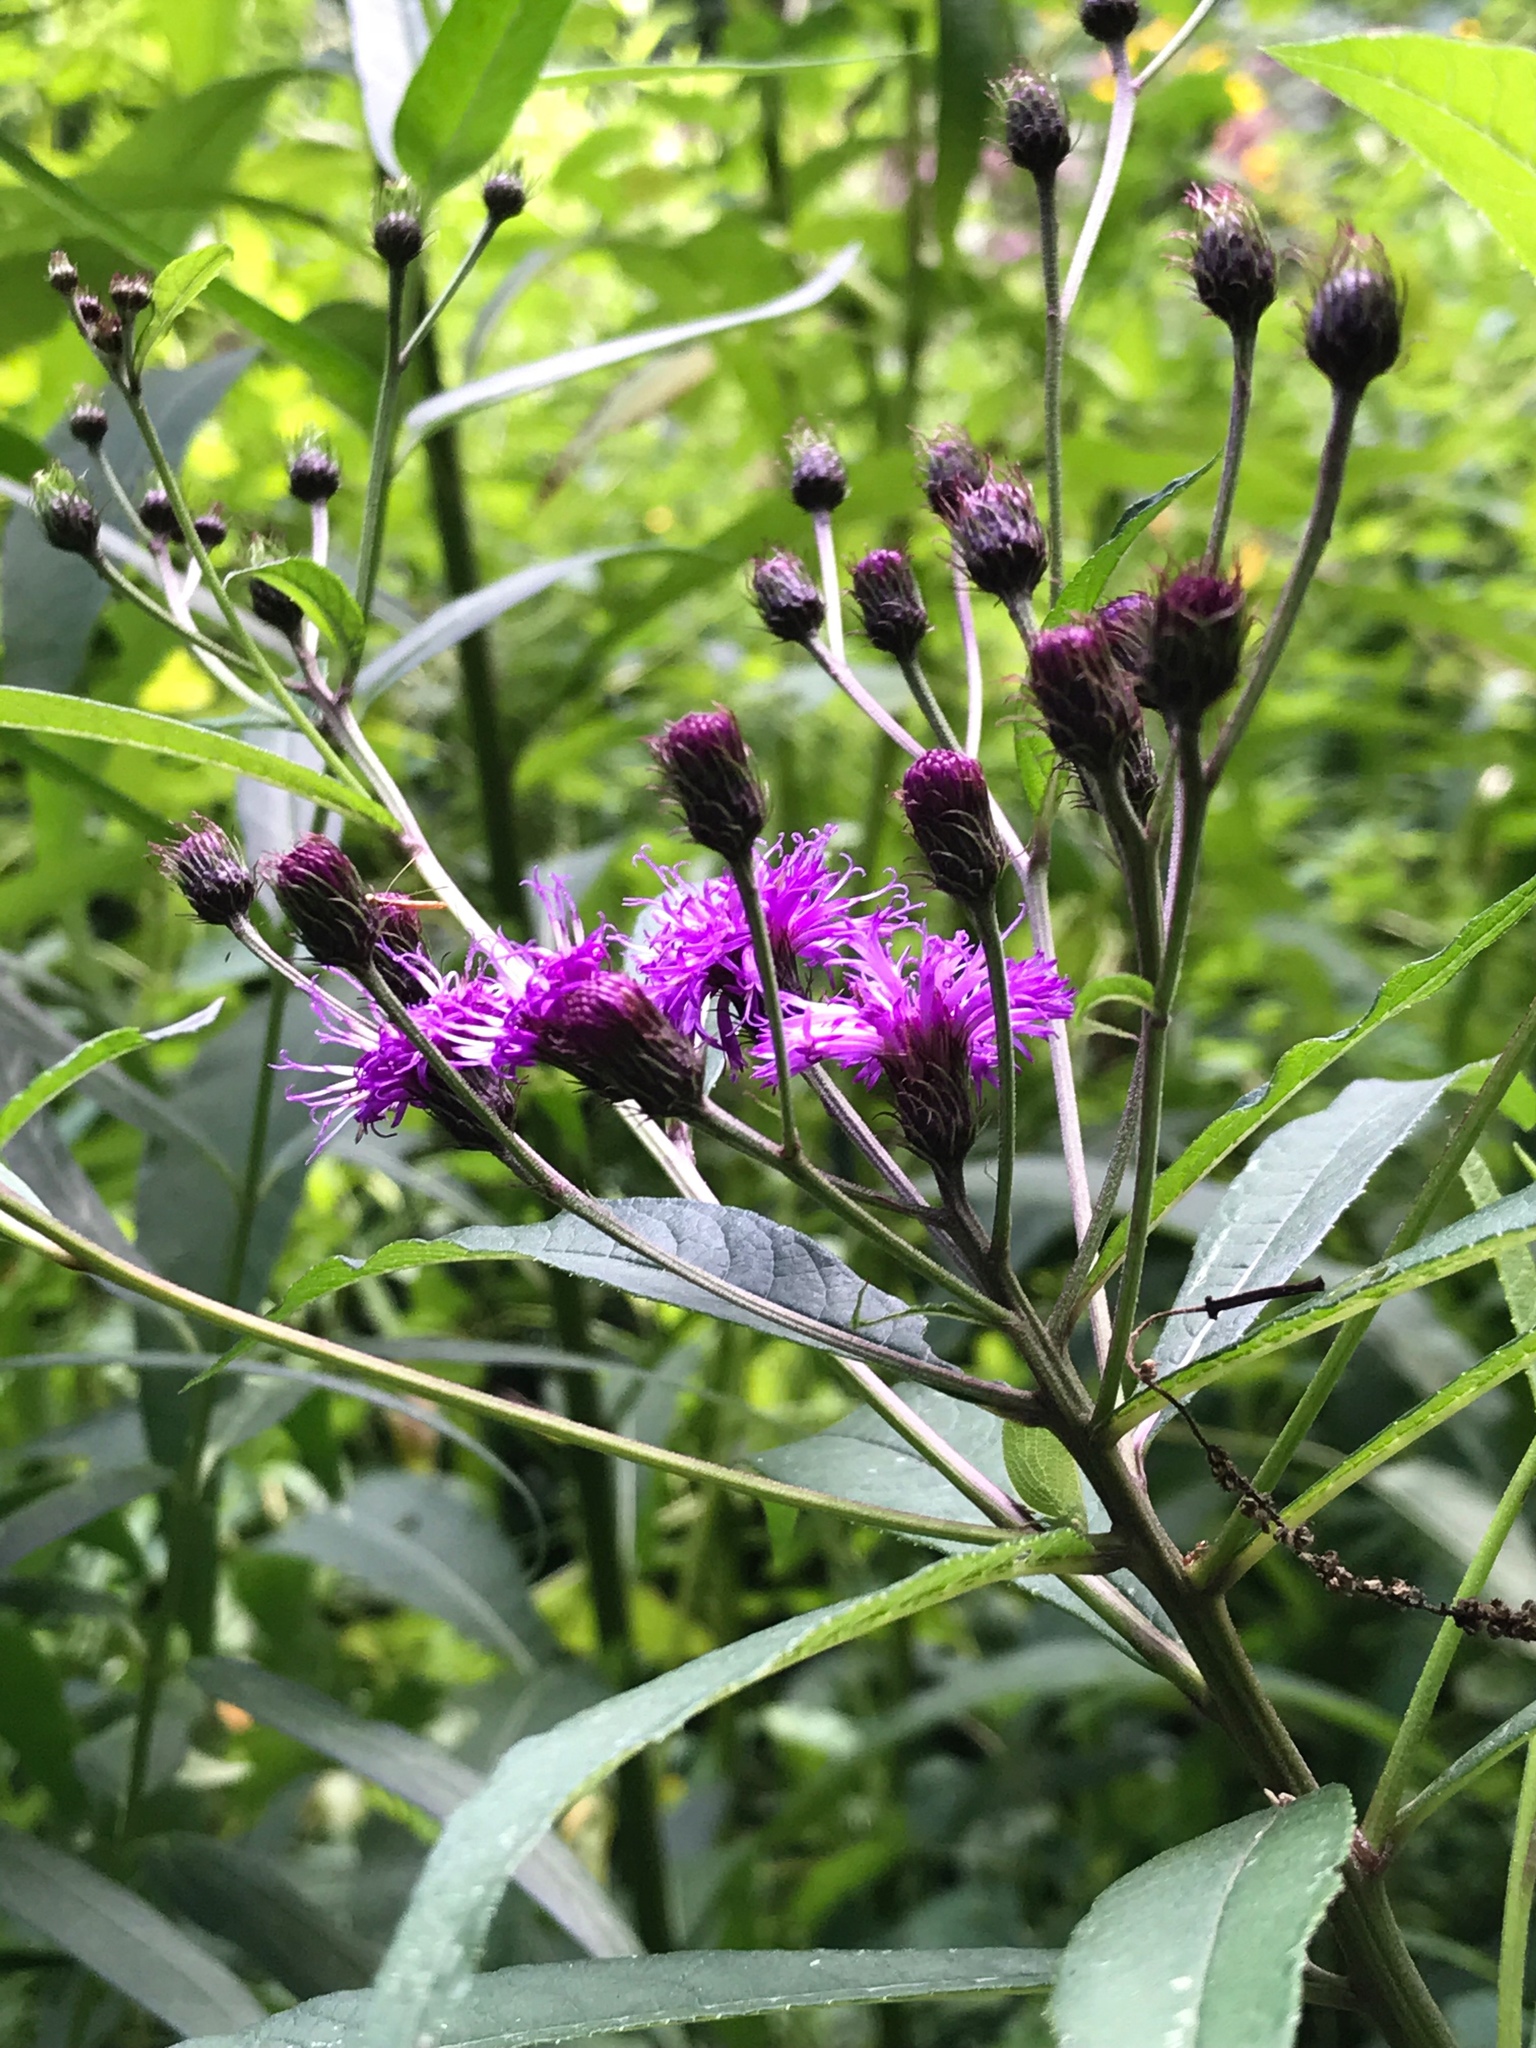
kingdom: Plantae
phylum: Tracheophyta
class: Magnoliopsida
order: Asterales
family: Asteraceae
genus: Vernonia
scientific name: Vernonia noveboracensis
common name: New york ironweed
